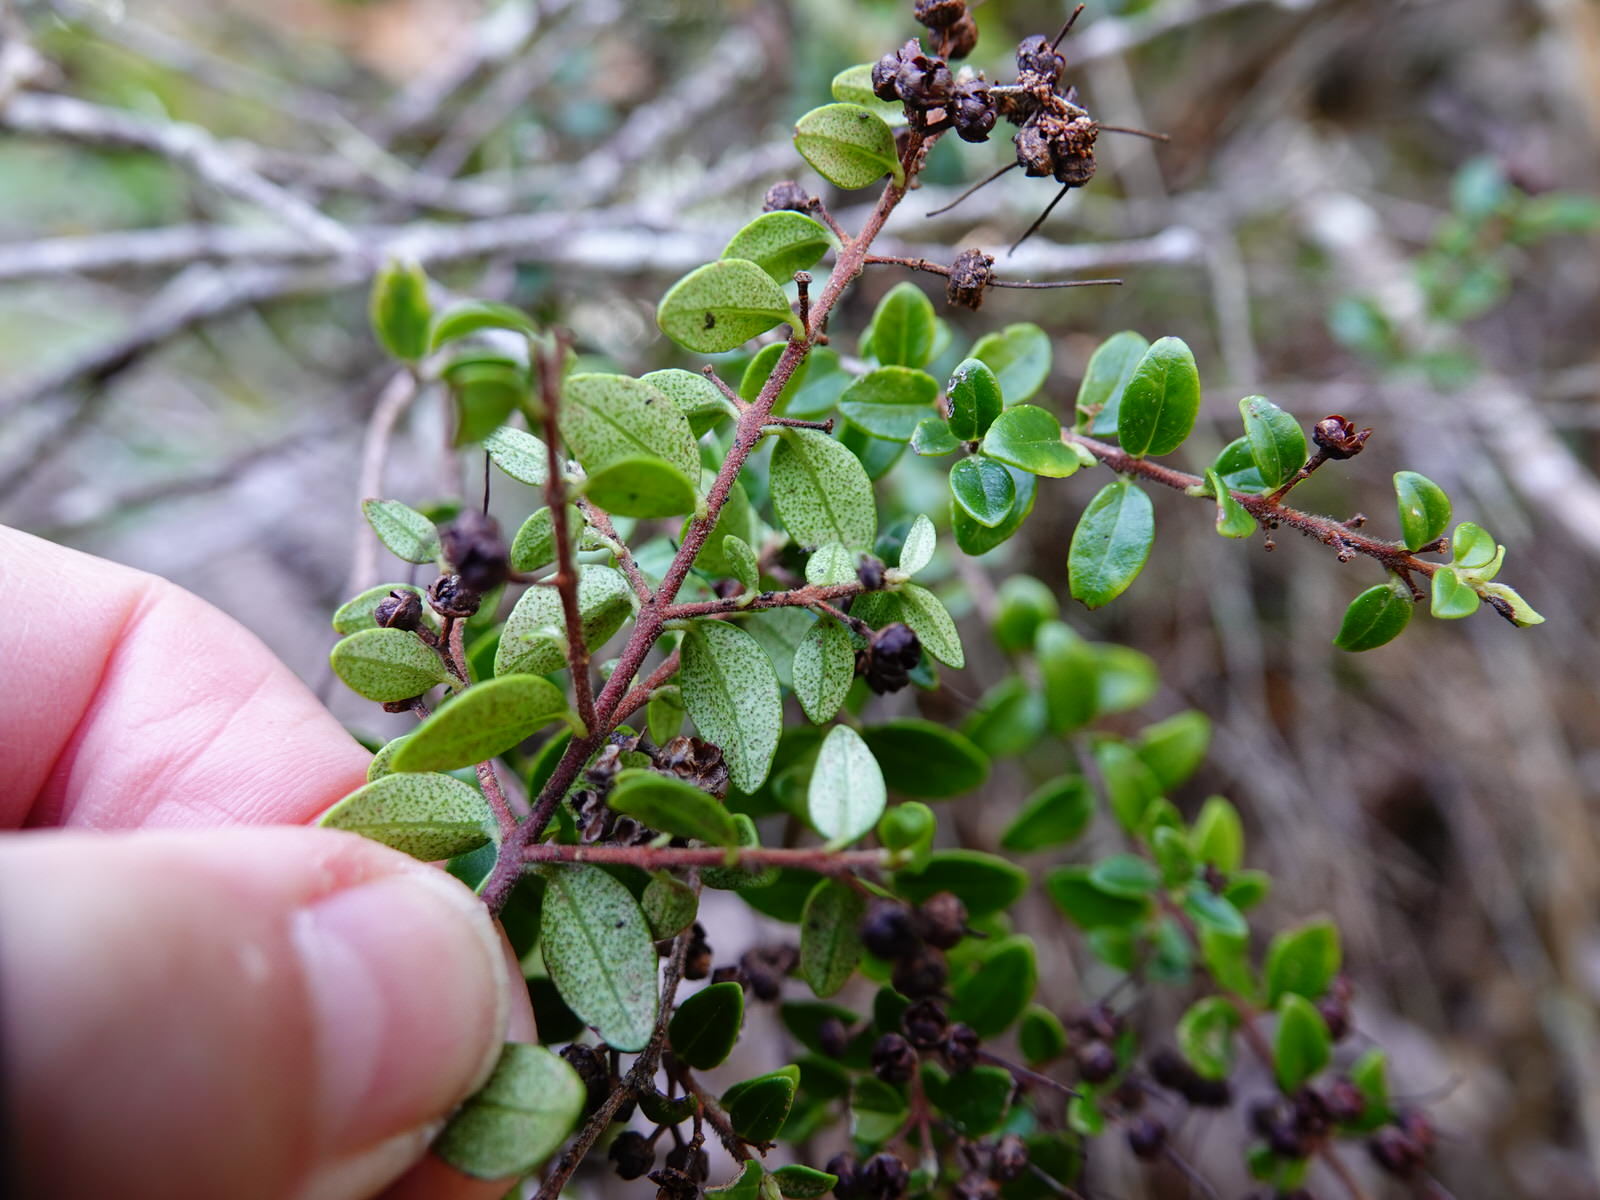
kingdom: Plantae
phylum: Tracheophyta
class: Magnoliopsida
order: Myrtales
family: Myrtaceae
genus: Metrosideros
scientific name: Metrosideros perforata
